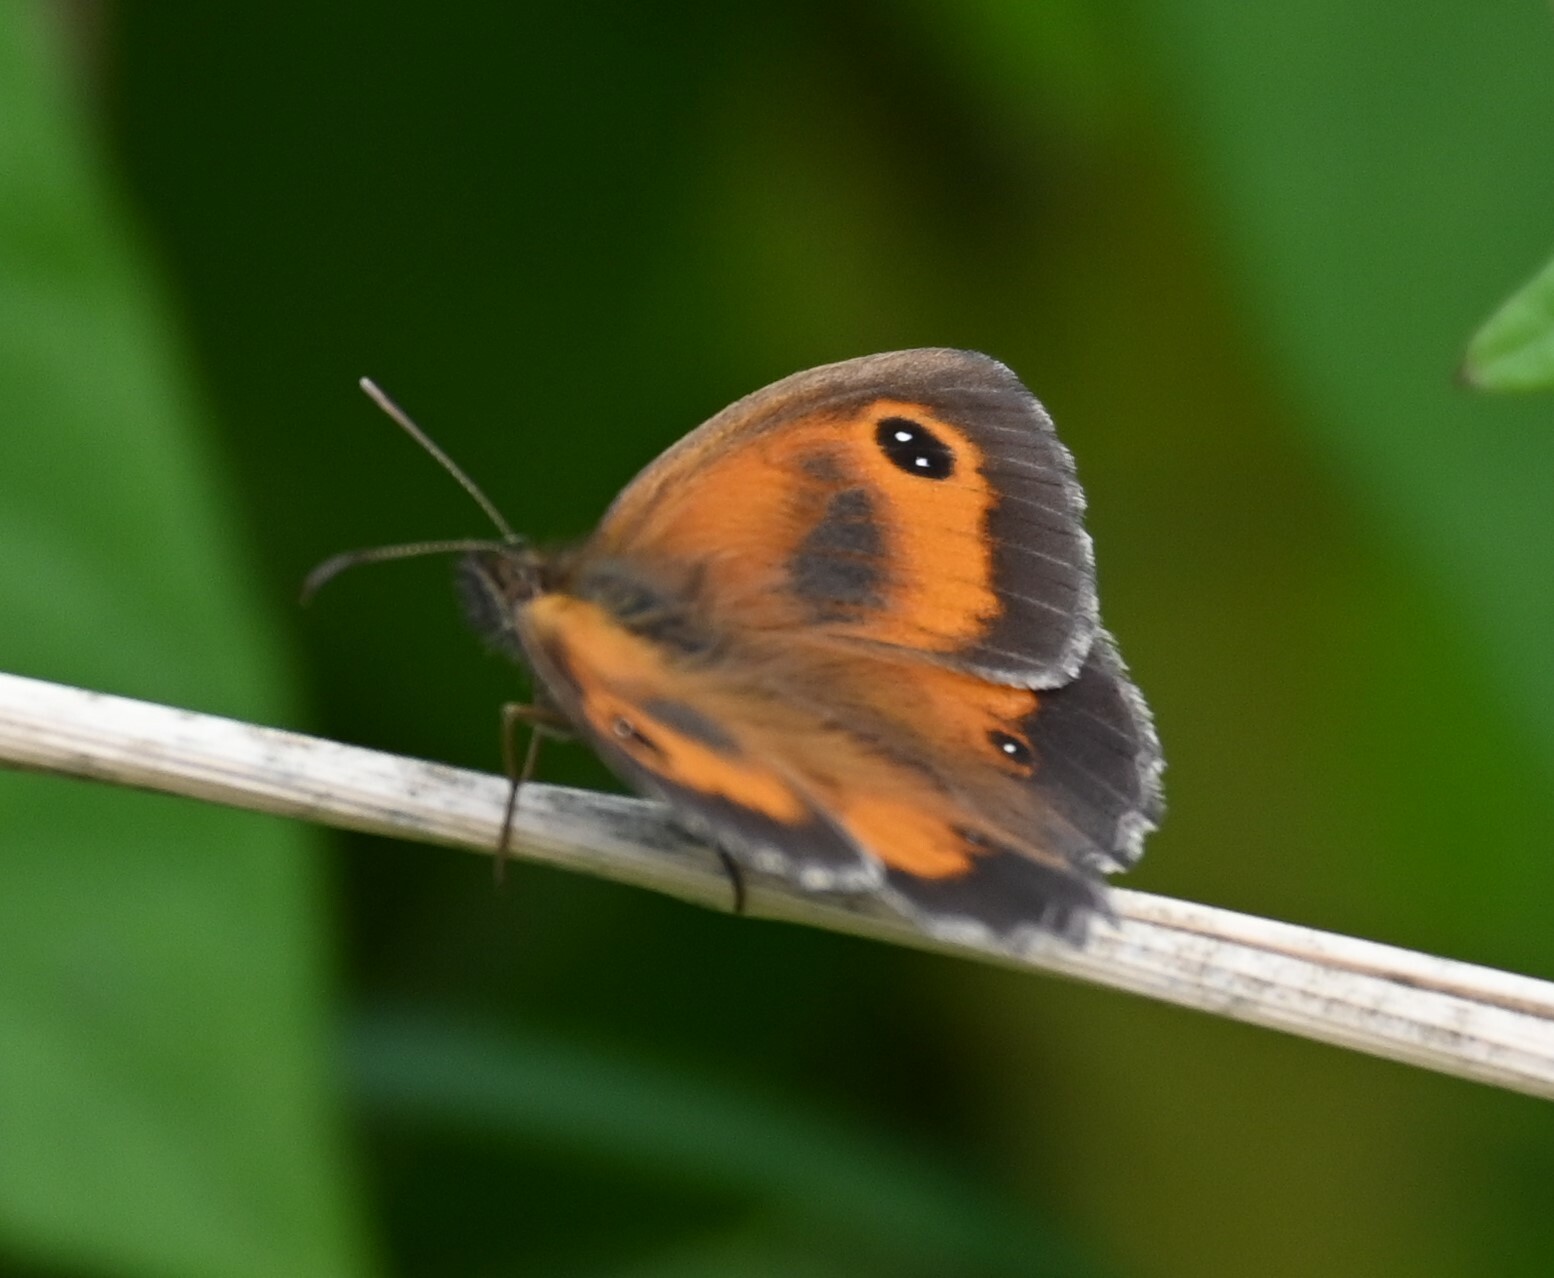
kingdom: Animalia
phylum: Arthropoda
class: Insecta
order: Lepidoptera
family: Nymphalidae
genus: Pyronia
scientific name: Pyronia tithonus
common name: Gatekeeper
